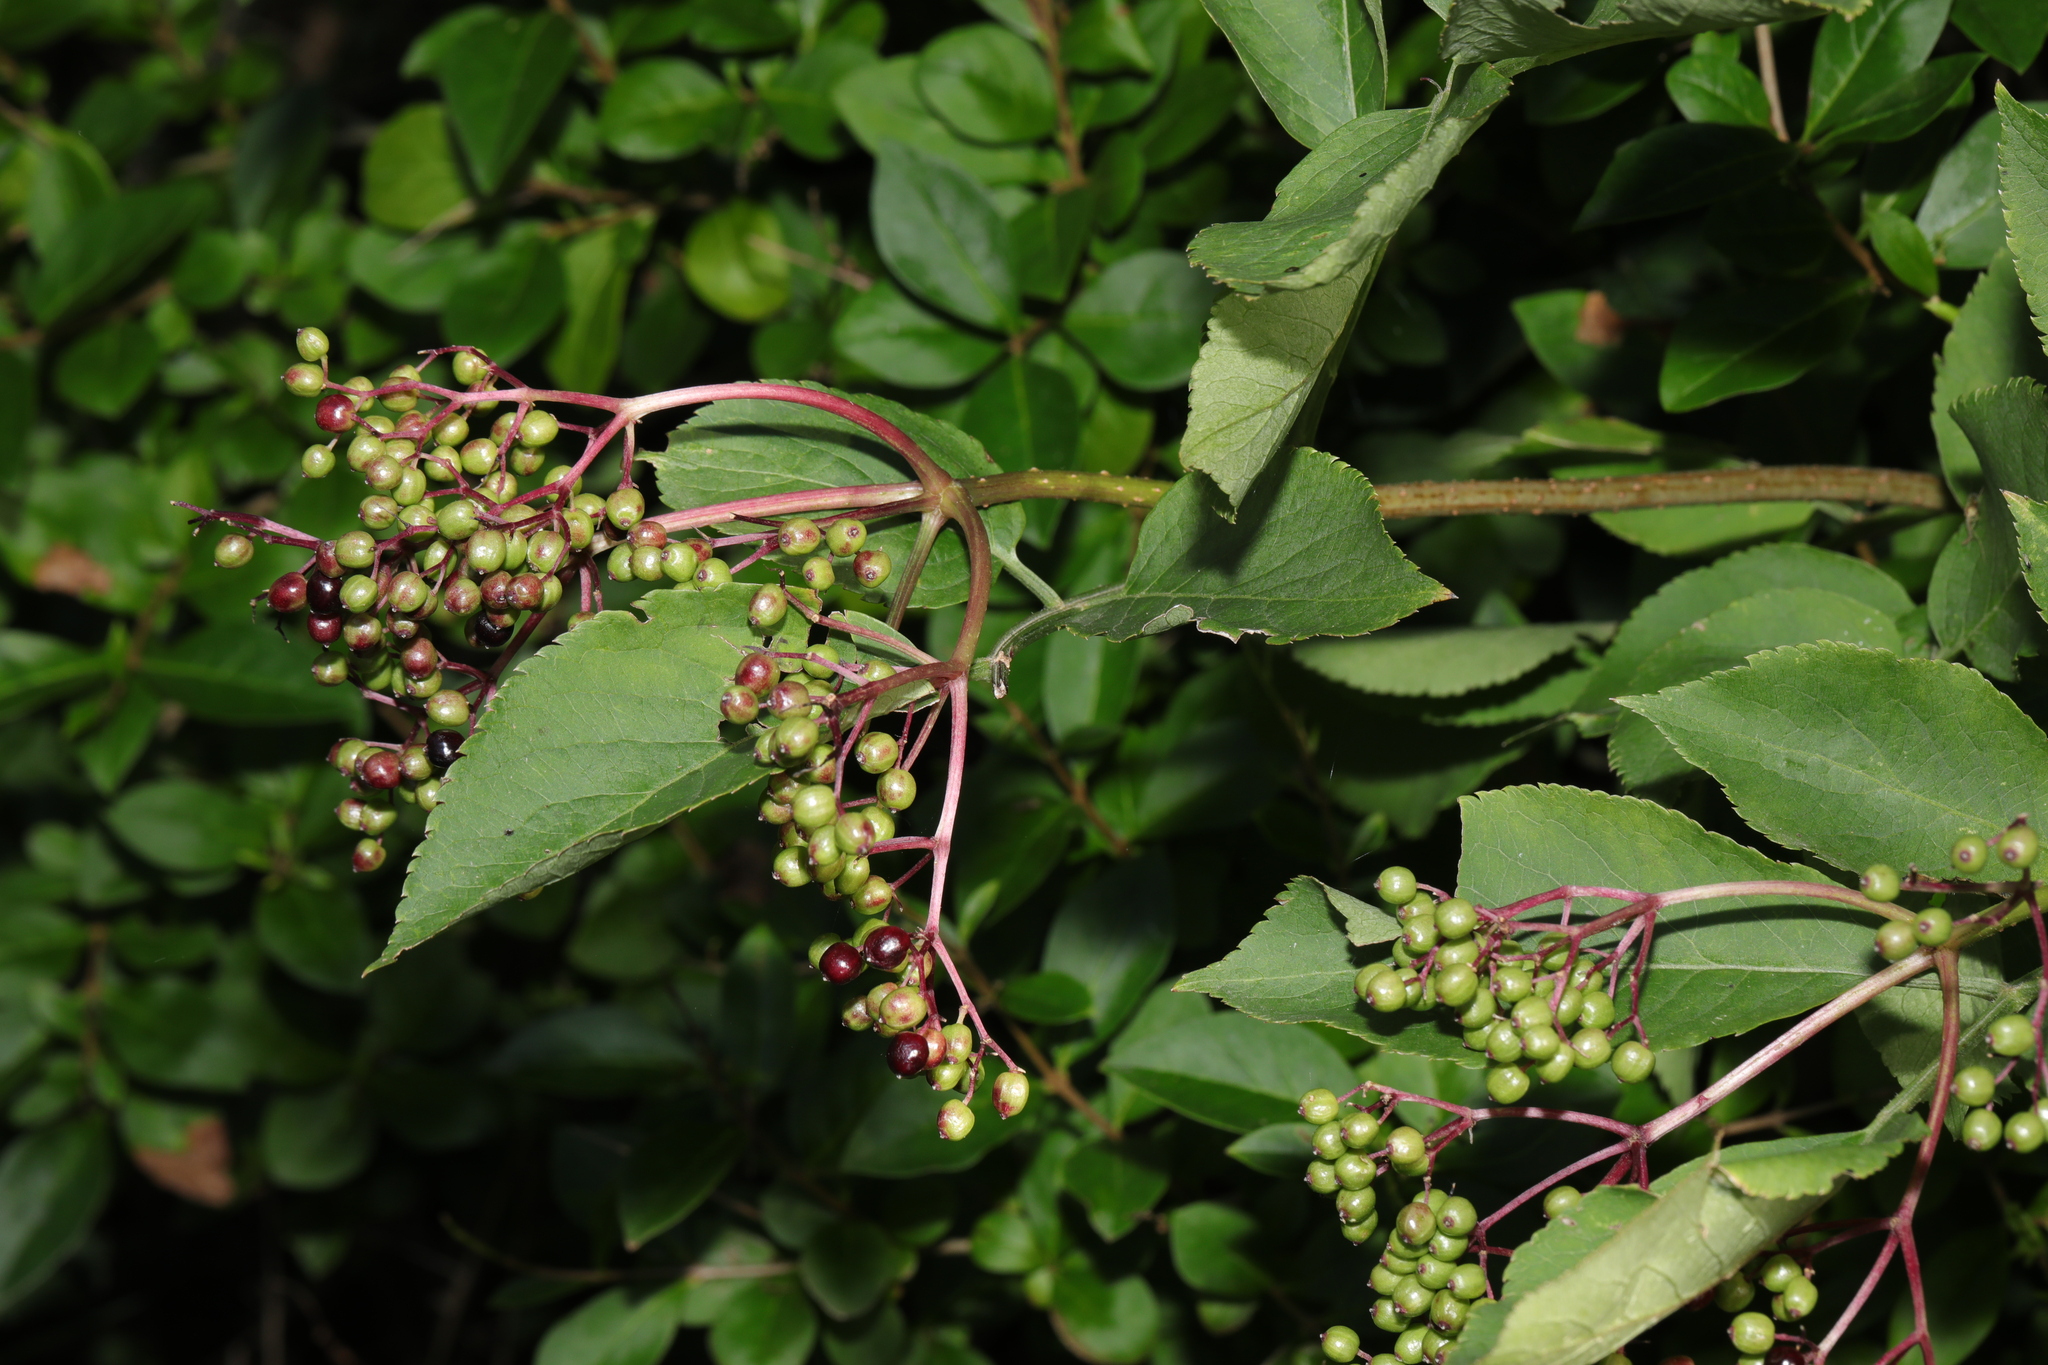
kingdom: Plantae
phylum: Tracheophyta
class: Magnoliopsida
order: Dipsacales
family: Viburnaceae
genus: Sambucus
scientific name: Sambucus nigra
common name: Elder
